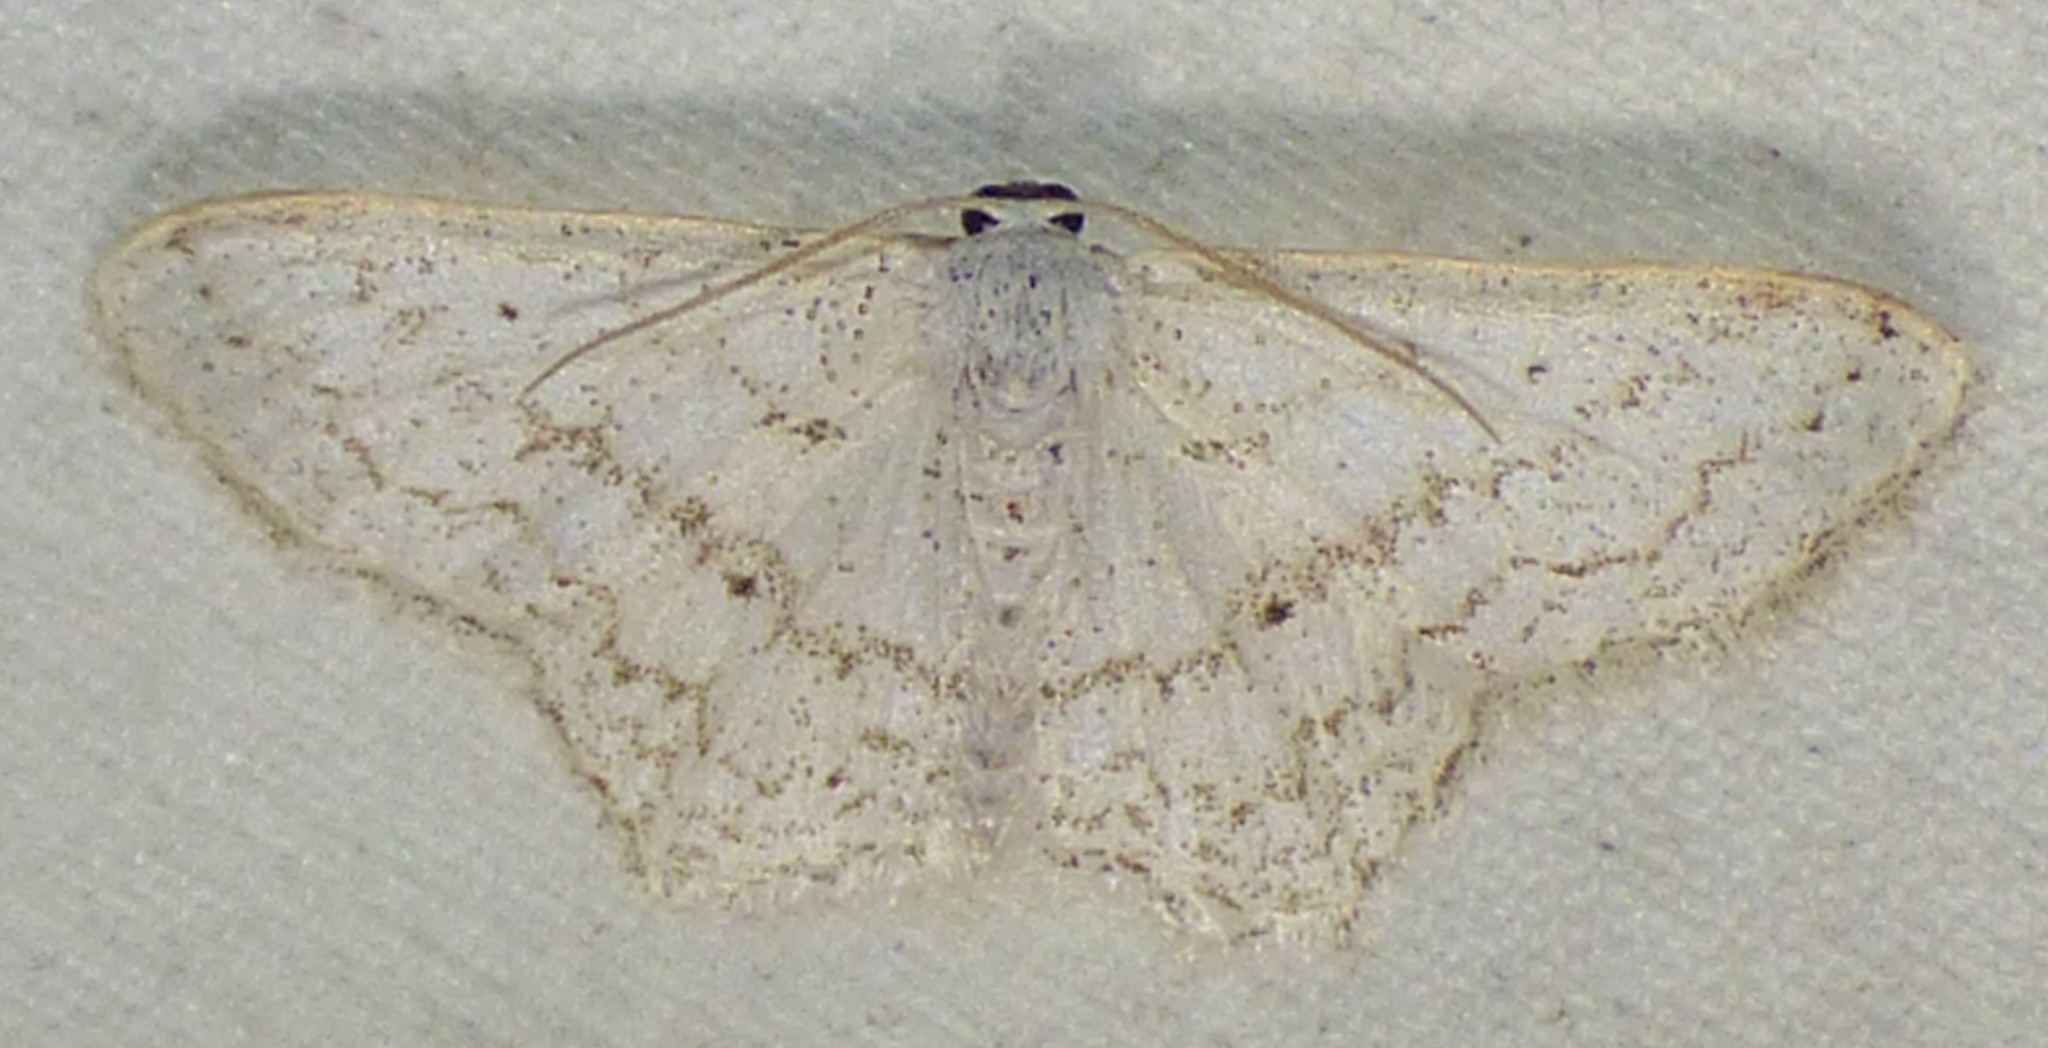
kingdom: Animalia
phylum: Arthropoda
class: Insecta
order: Lepidoptera
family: Geometridae
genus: Idaea
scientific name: Idaea tacturata
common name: Dot-lined wave
